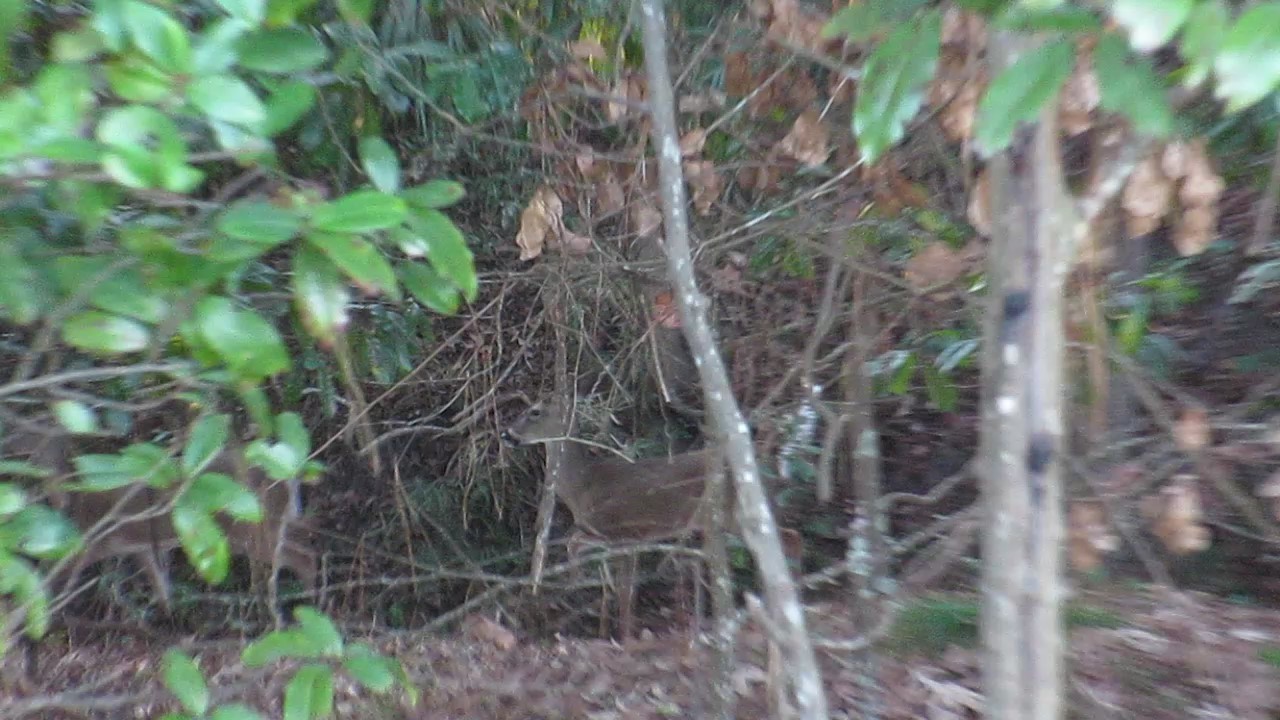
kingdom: Animalia
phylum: Chordata
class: Mammalia
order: Artiodactyla
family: Cervidae
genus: Odocoileus
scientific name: Odocoileus virginianus
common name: White-tailed deer
